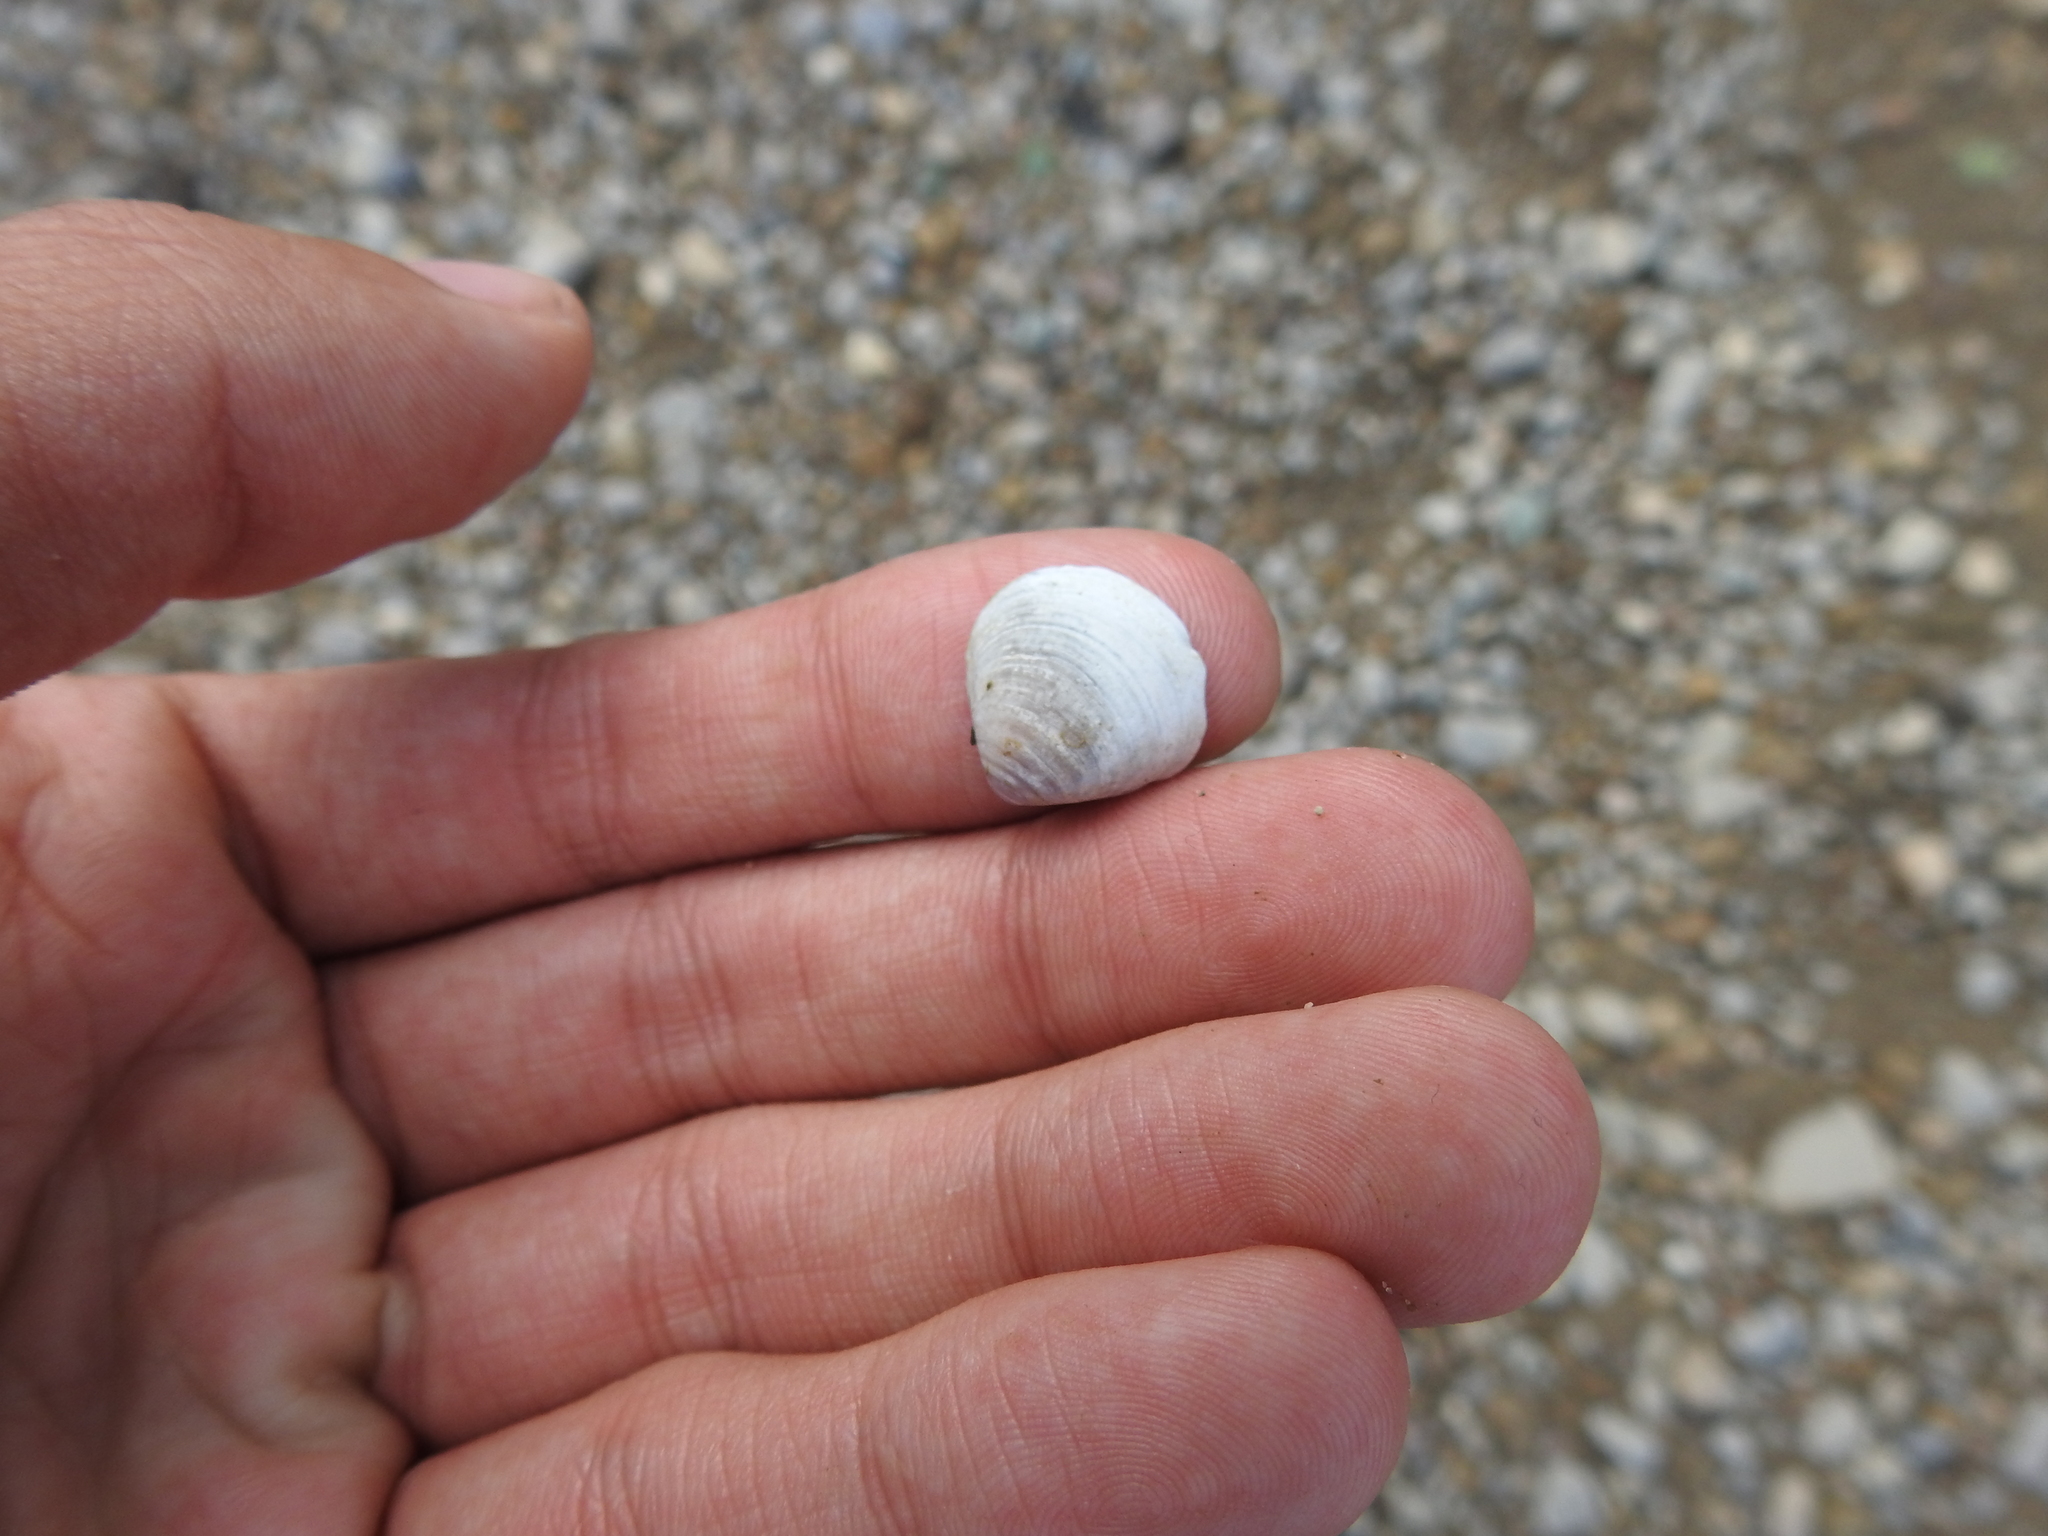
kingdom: Animalia
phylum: Mollusca
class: Bivalvia
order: Venerida
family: Cyrenidae
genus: Corbicula
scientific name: Corbicula fluminea
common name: Asian clam
